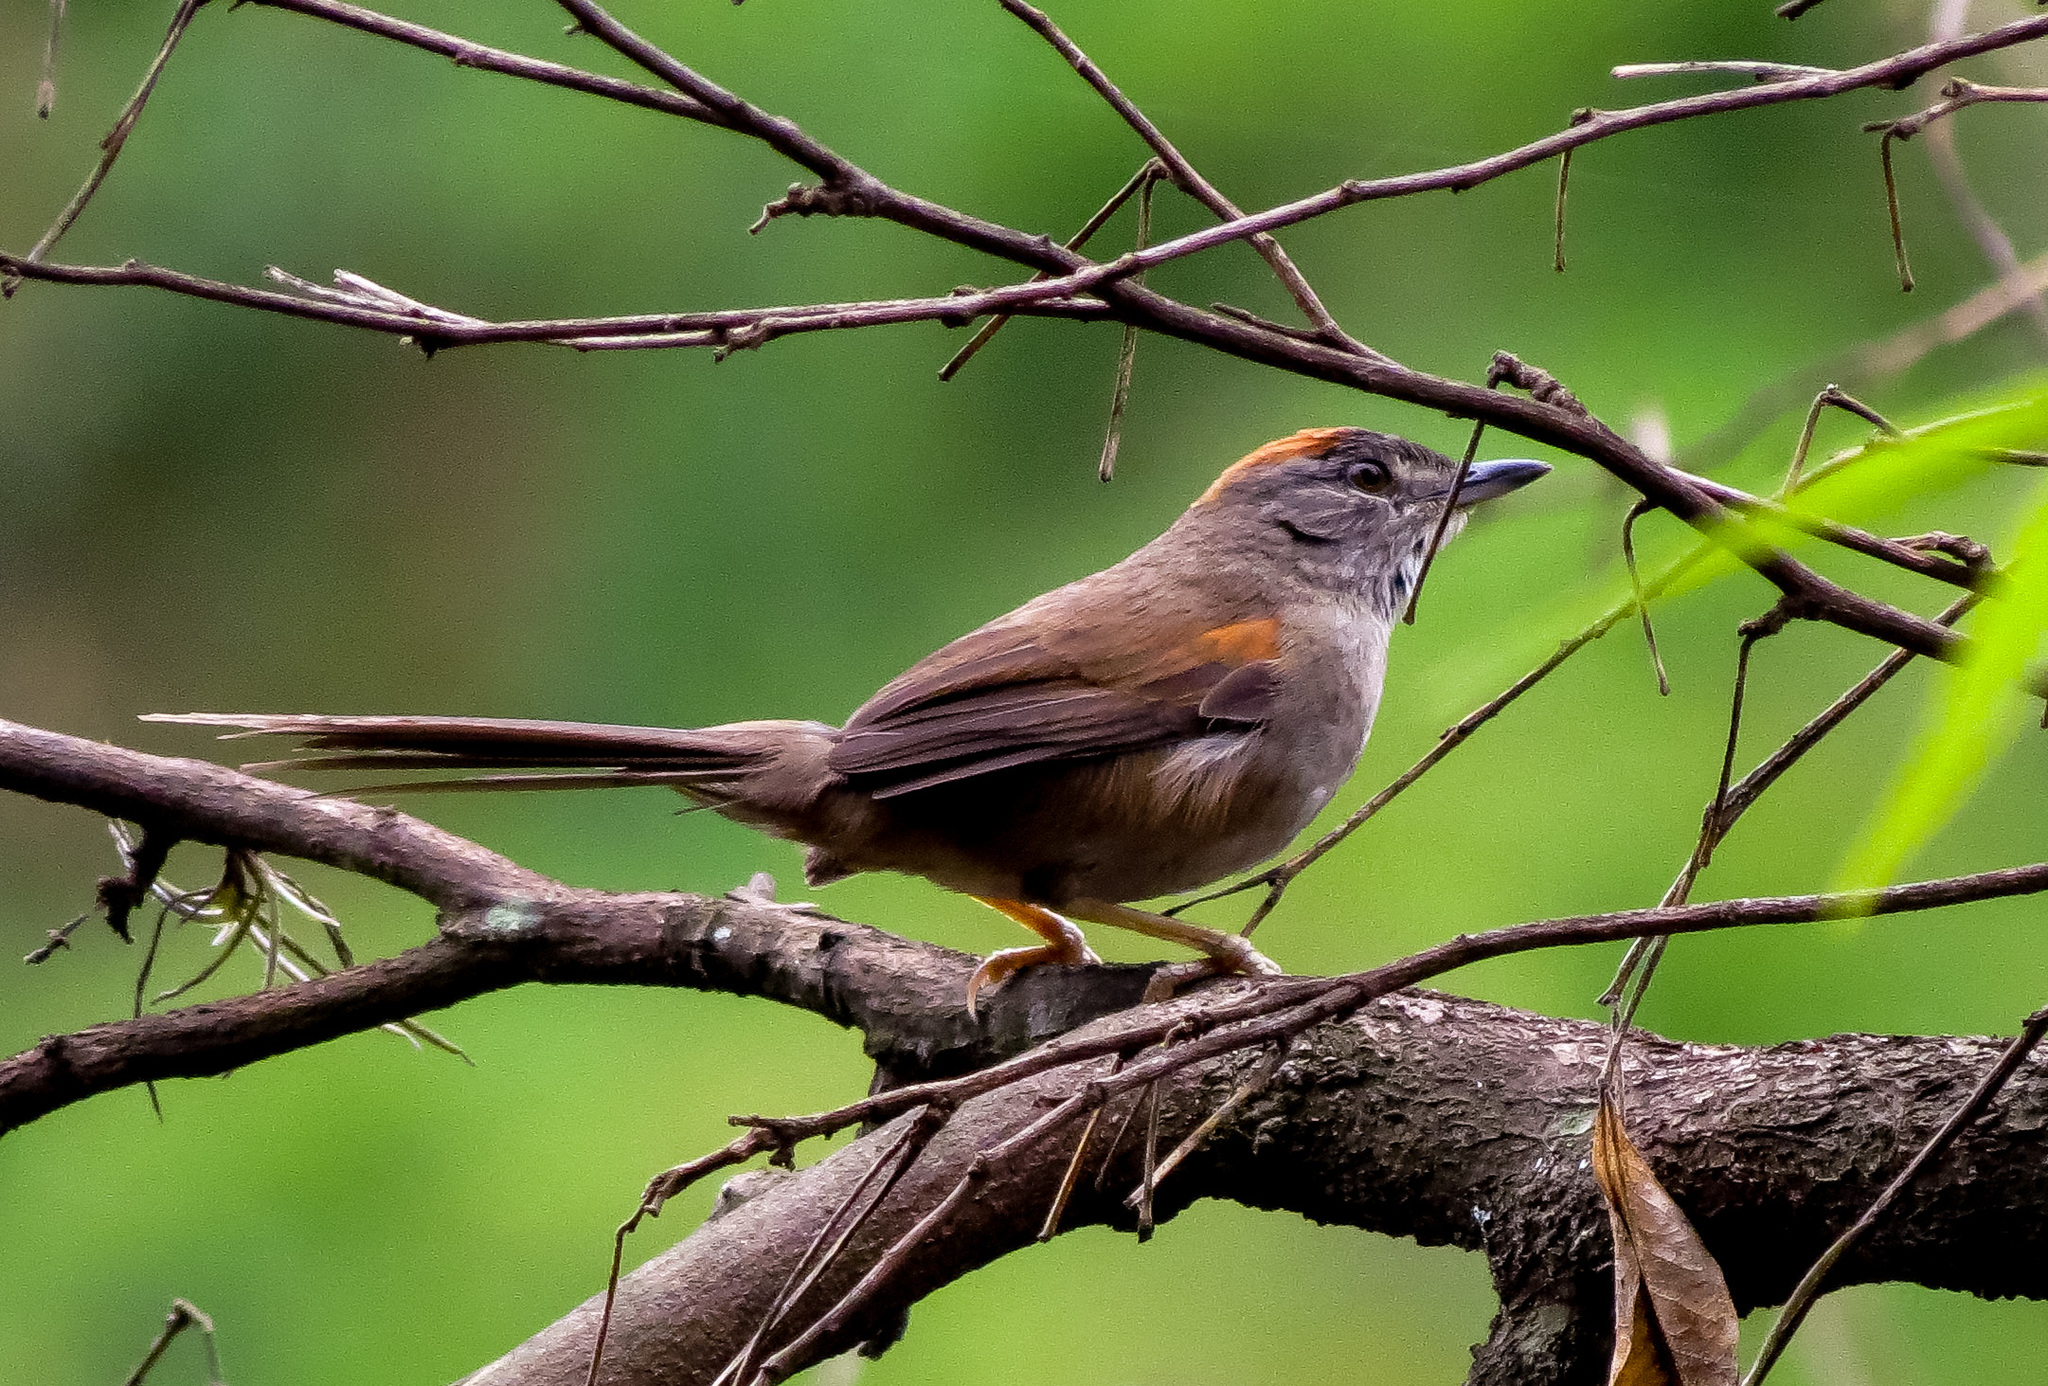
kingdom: Animalia
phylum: Chordata
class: Aves
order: Passeriformes
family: Furnariidae
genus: Synallaxis
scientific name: Synallaxis albescens
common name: Pale-breasted spinetail
